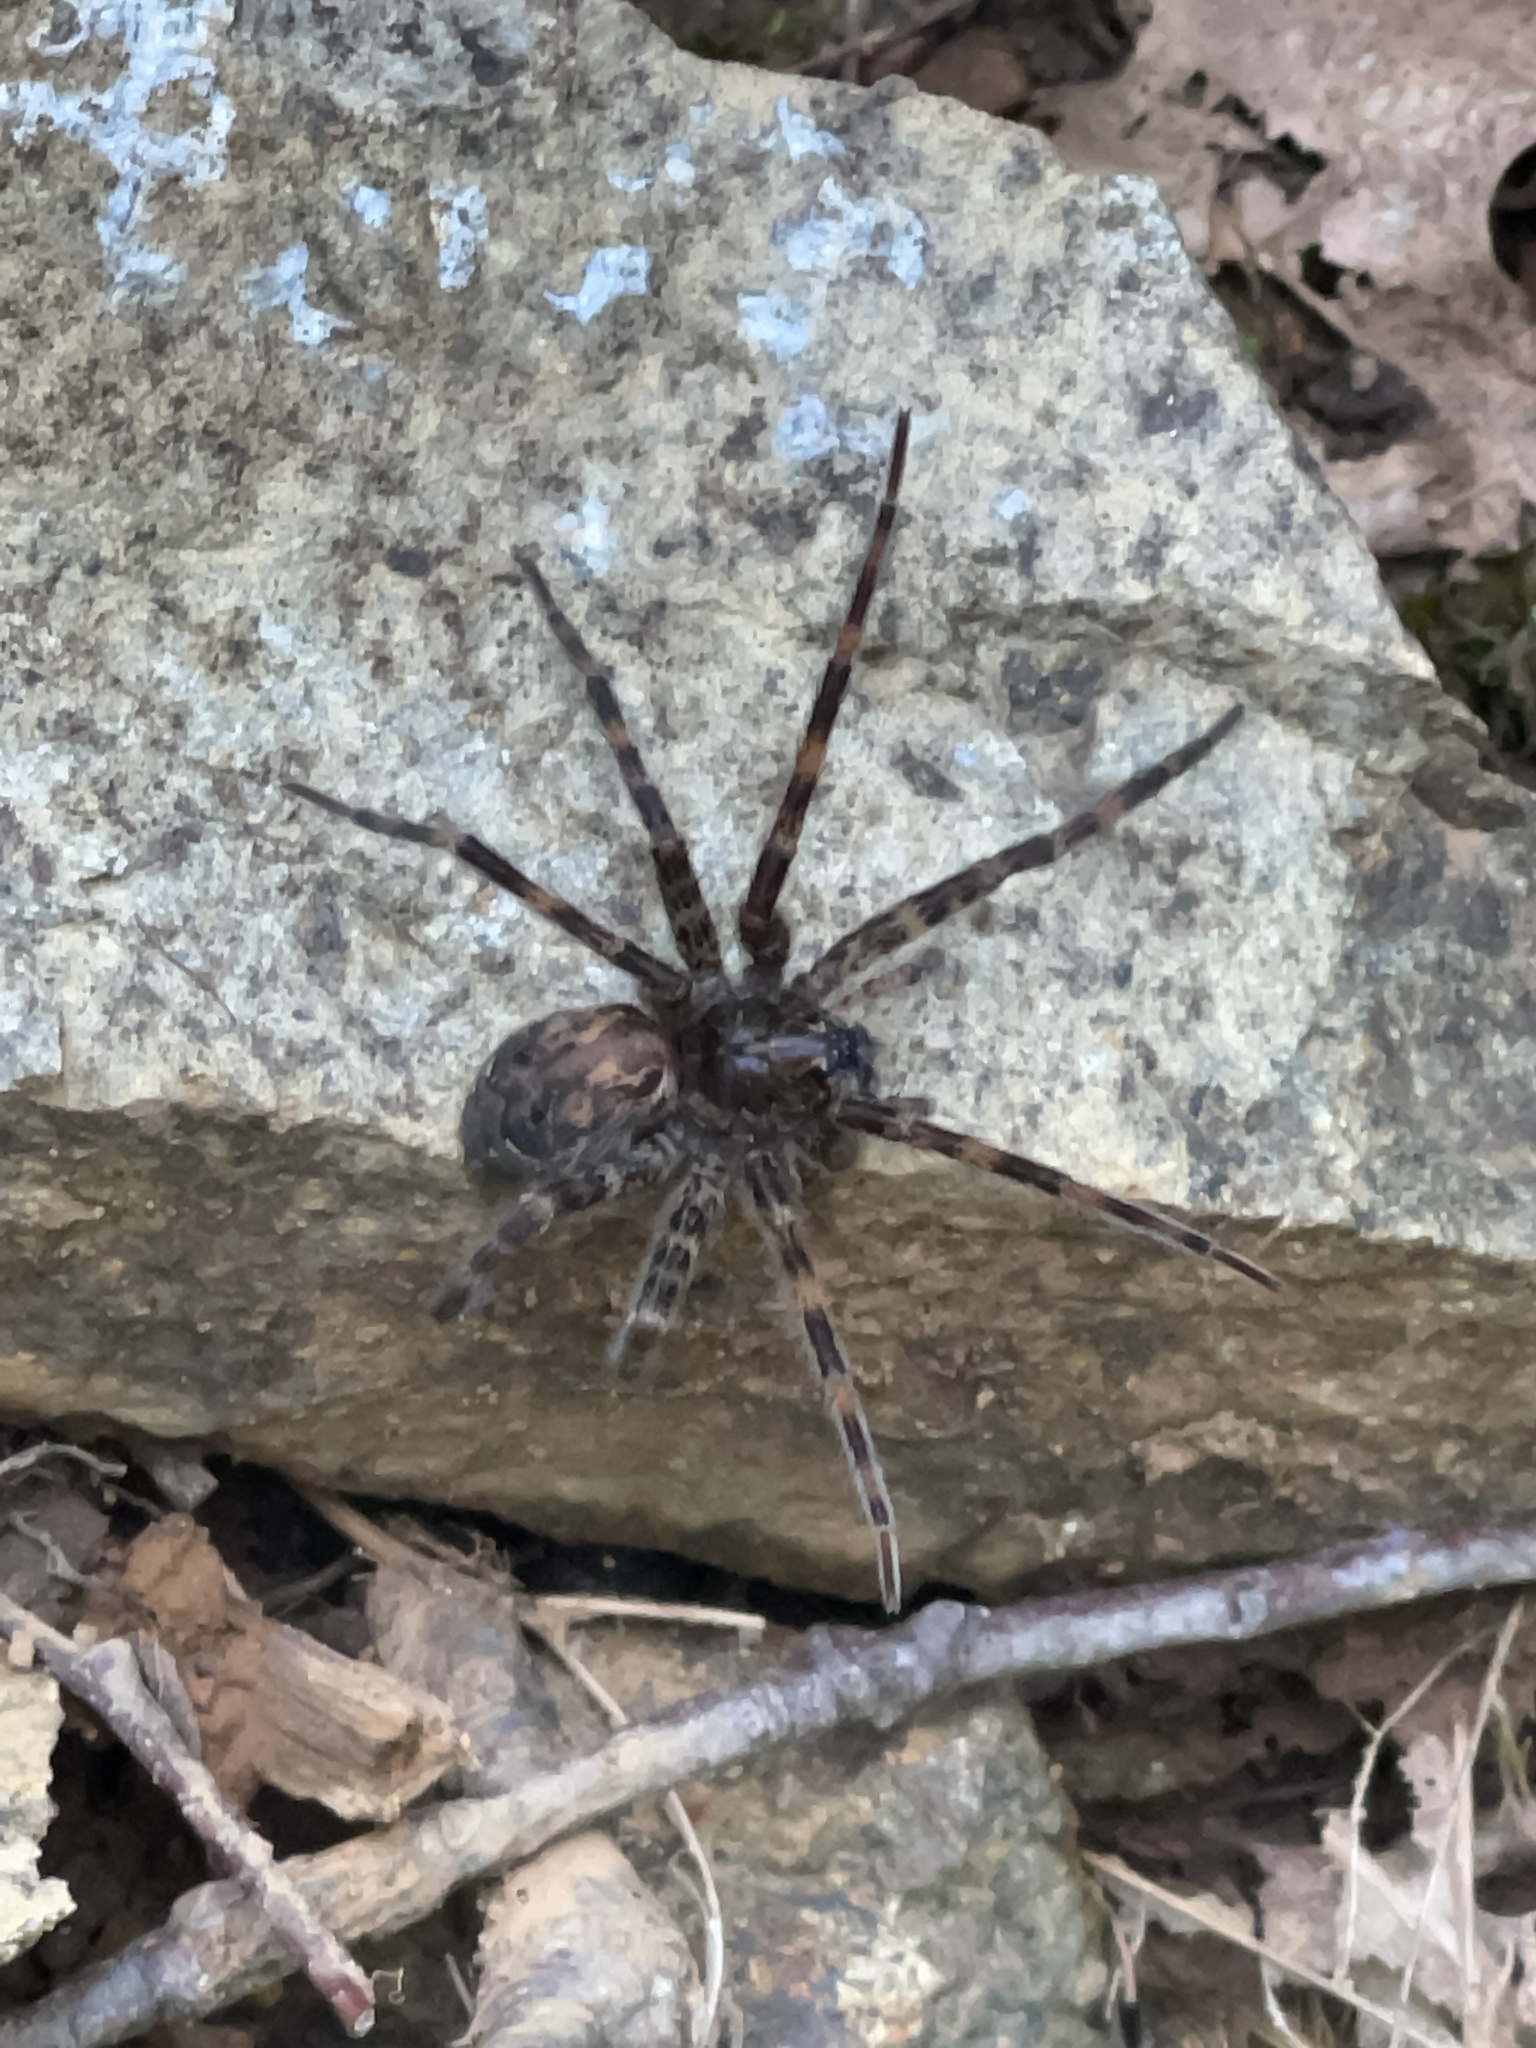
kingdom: Animalia
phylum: Arthropoda
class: Arachnida
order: Araneae
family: Pisauridae
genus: Dolomedes
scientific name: Dolomedes tenebrosus
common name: Dark fishing spider
